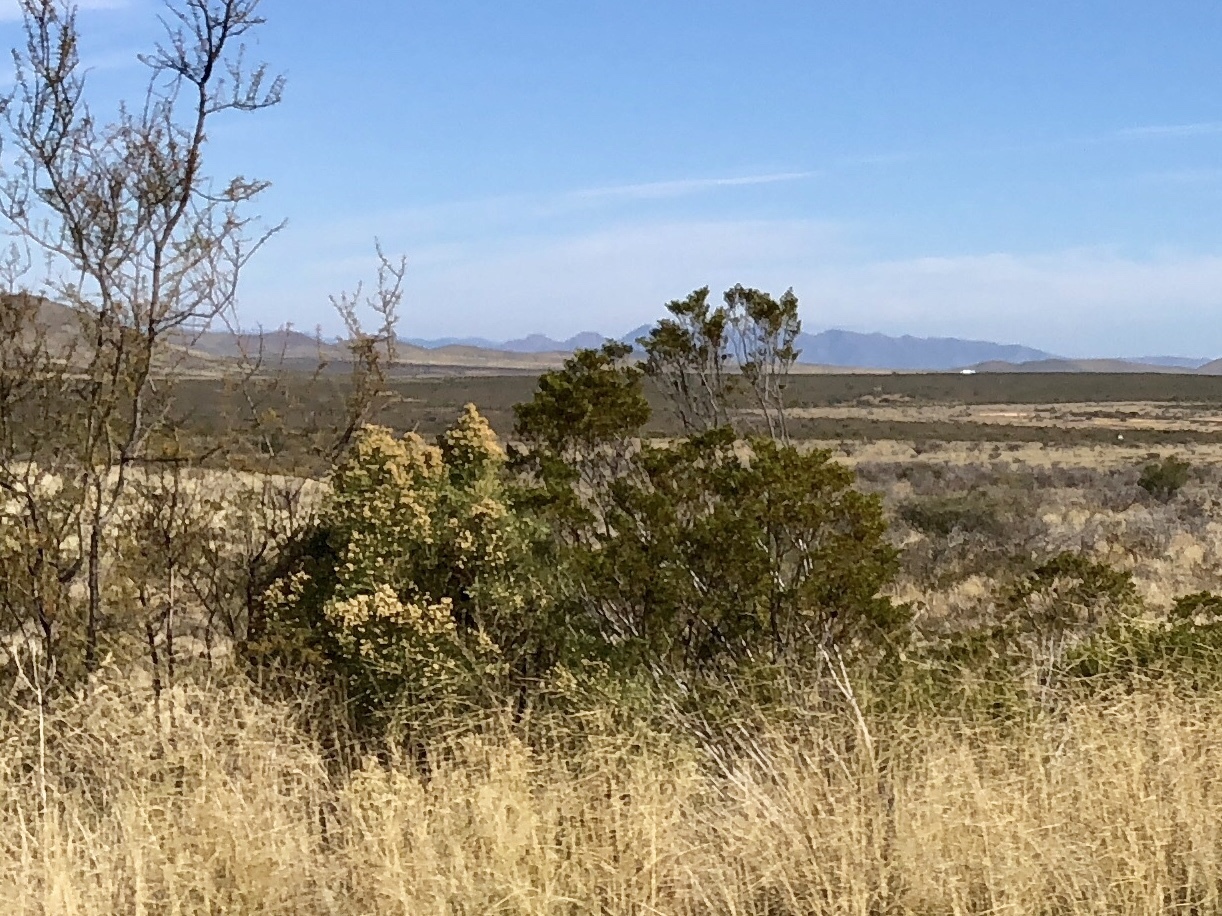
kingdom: Plantae
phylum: Tracheophyta
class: Magnoliopsida
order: Zygophyllales
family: Zygophyllaceae
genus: Larrea
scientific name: Larrea tridentata
